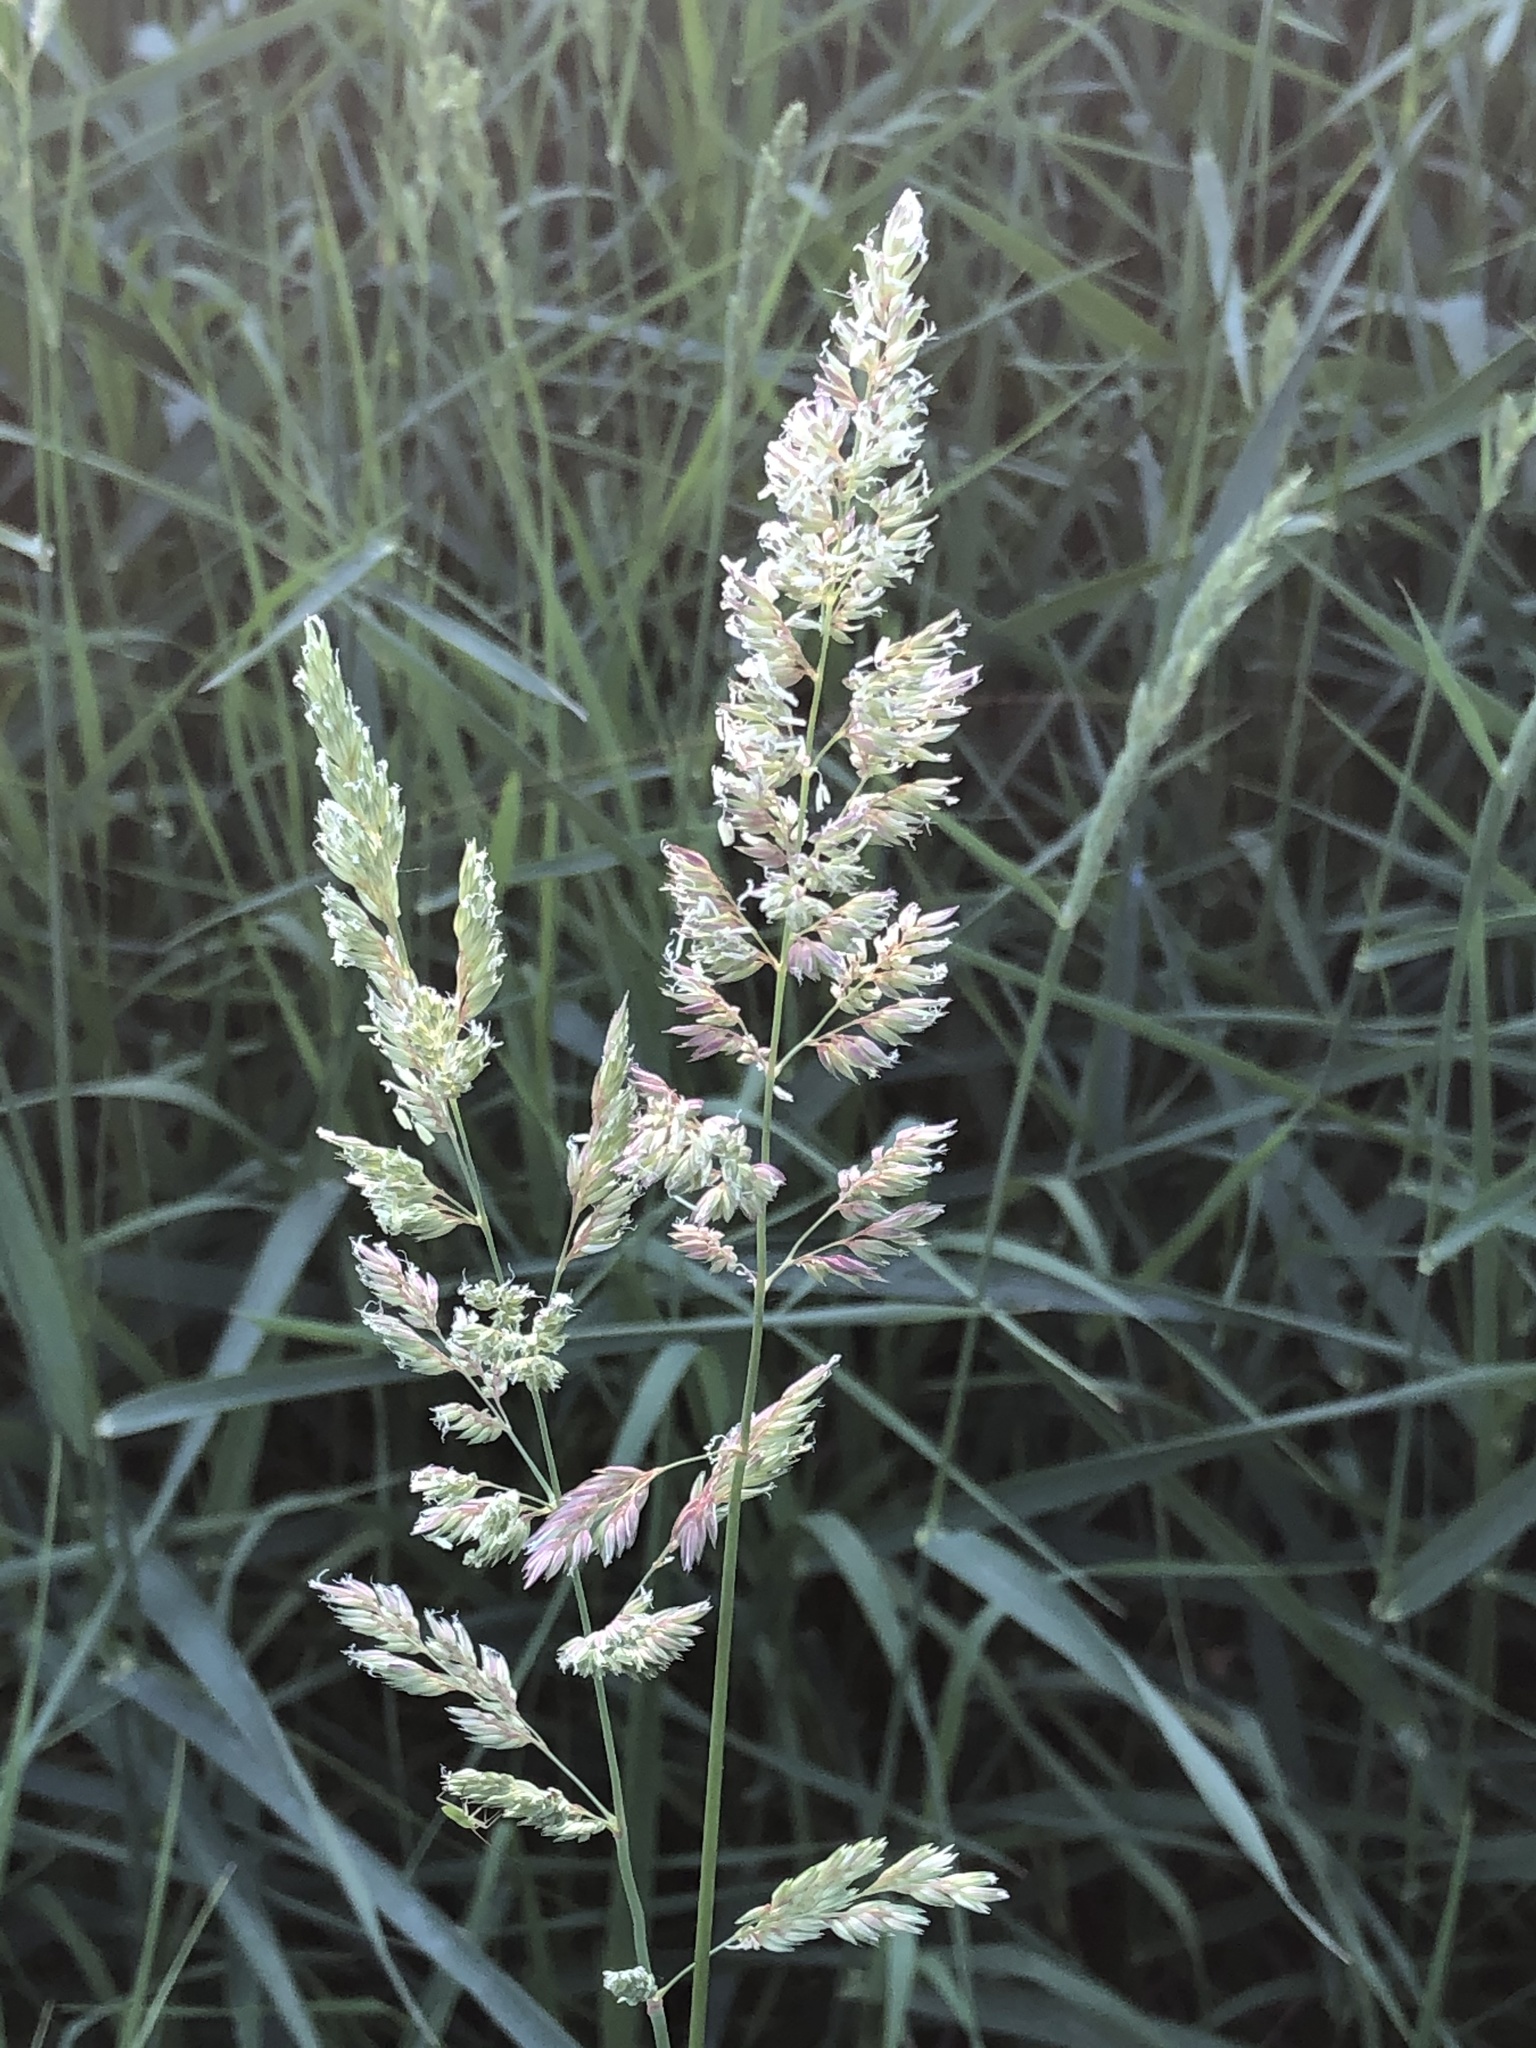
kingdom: Plantae
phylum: Tracheophyta
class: Liliopsida
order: Poales
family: Poaceae
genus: Phalaris
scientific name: Phalaris arundinacea
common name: Reed canary-grass
